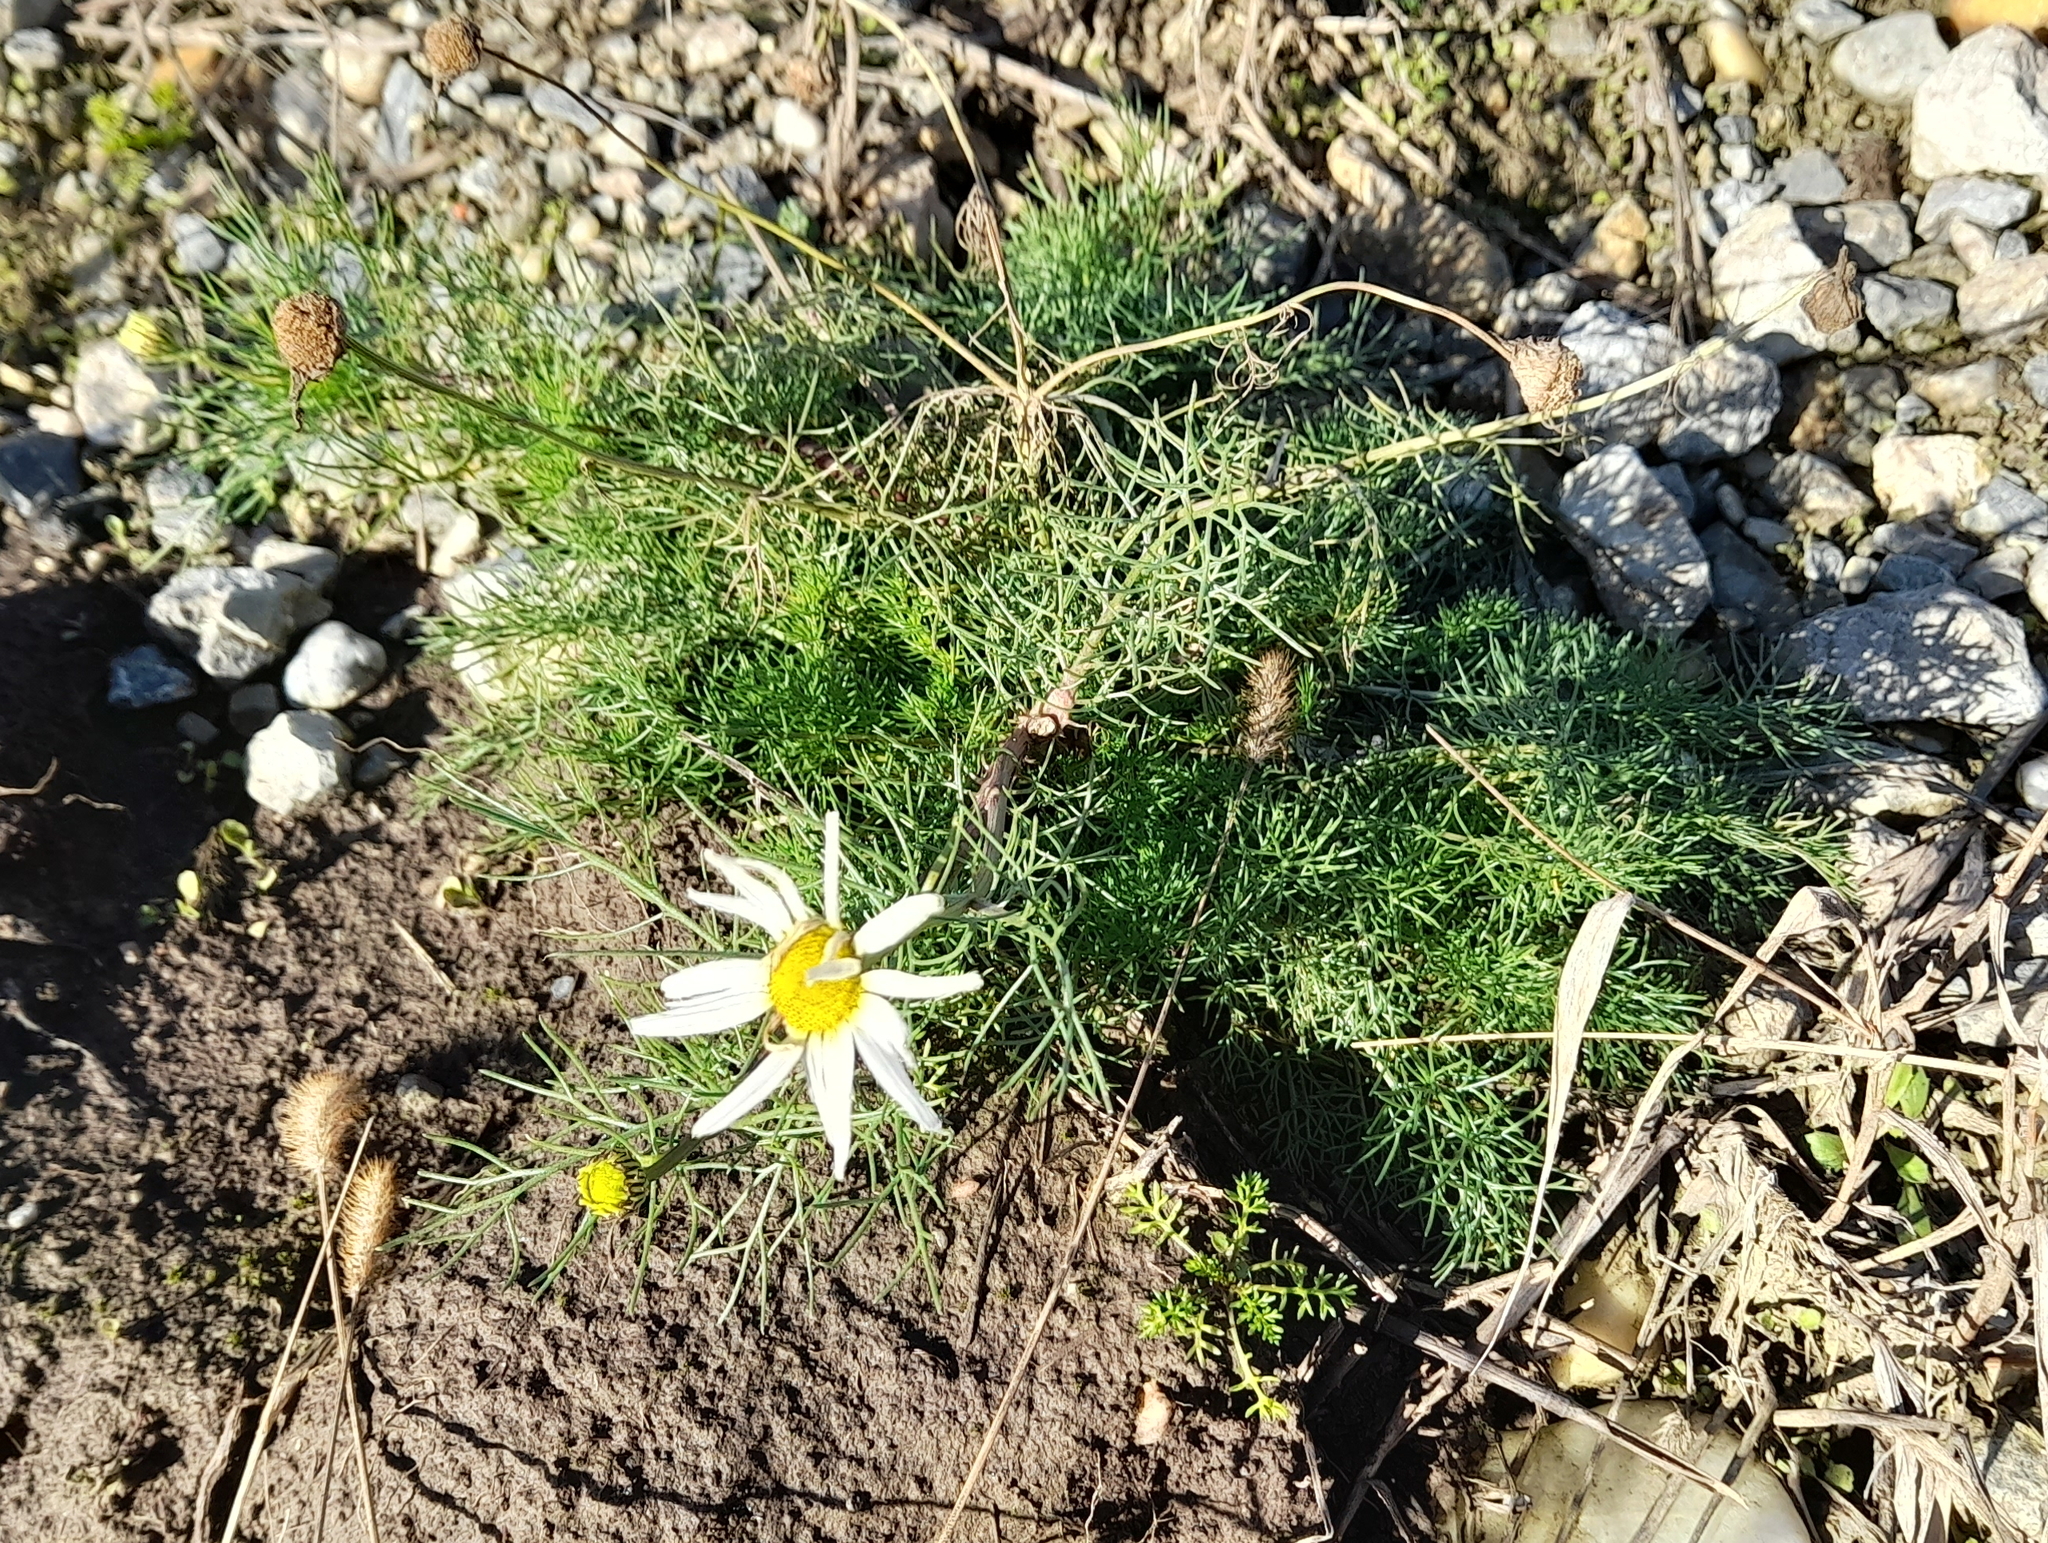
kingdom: Plantae
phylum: Tracheophyta
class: Magnoliopsida
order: Asterales
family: Asteraceae
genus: Tripleurospermum
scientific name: Tripleurospermum inodorum
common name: Scentless mayweed
